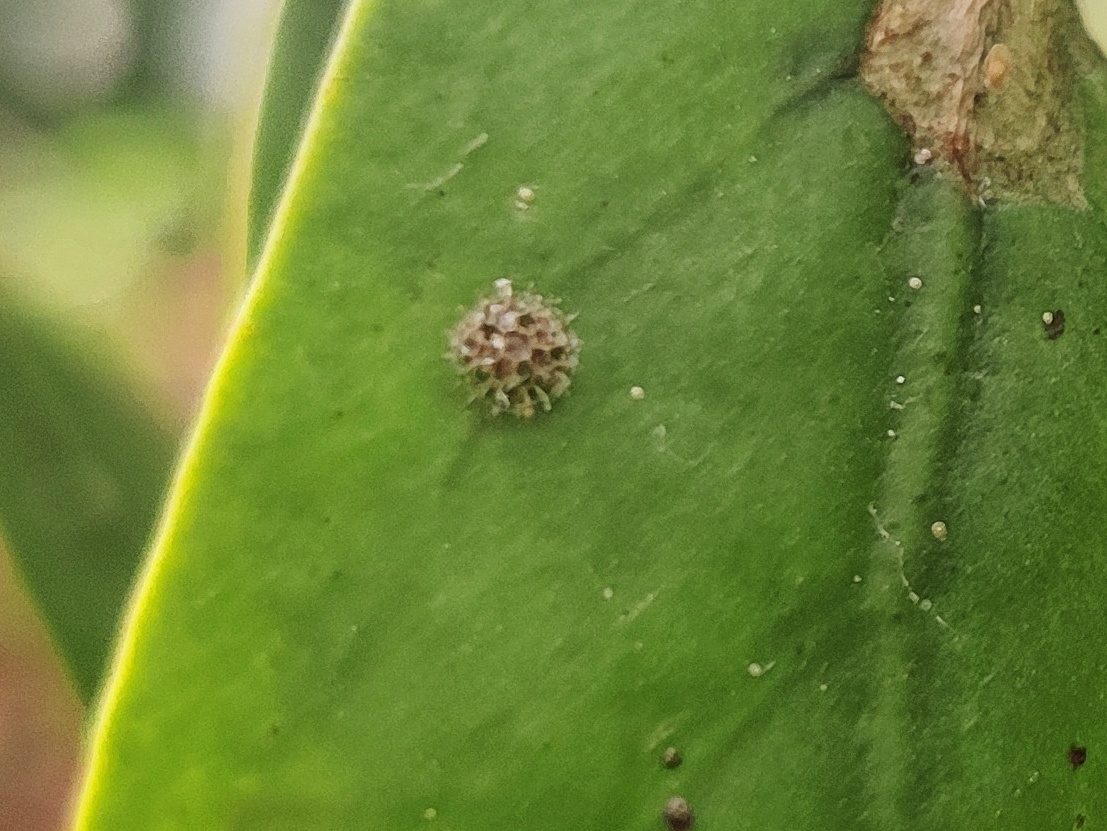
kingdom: Animalia
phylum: Arthropoda
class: Insecta
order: Lepidoptera
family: Nymphalidae
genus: Euthalia
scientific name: Euthalia lubentina
